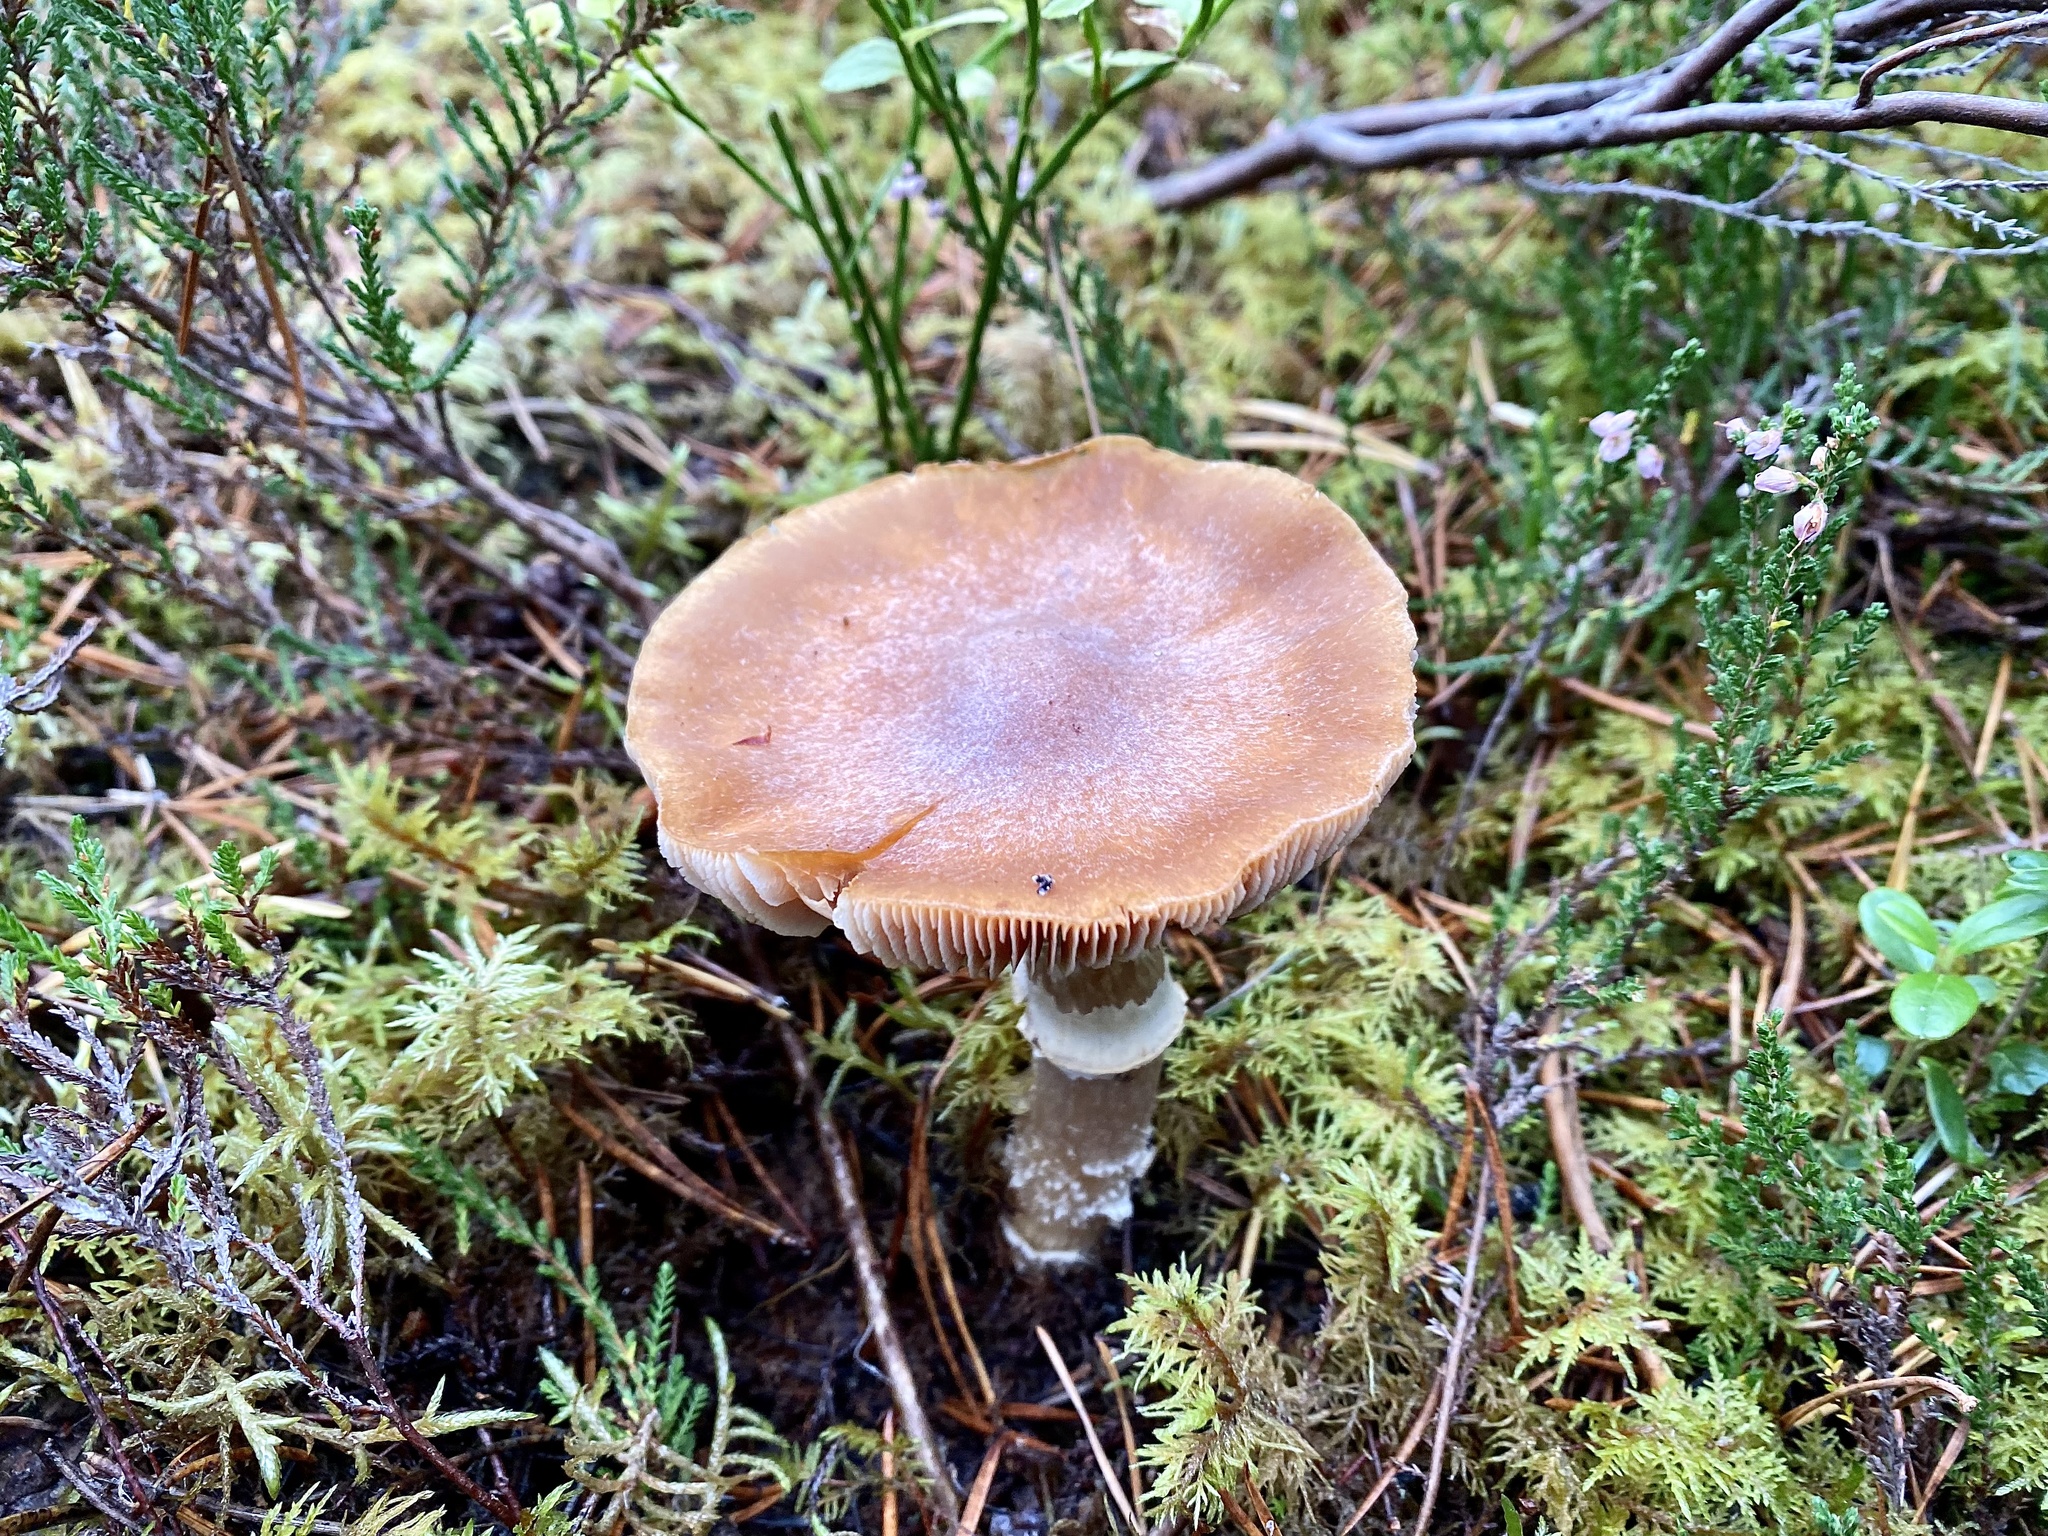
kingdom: Fungi
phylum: Basidiomycota
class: Agaricomycetes
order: Agaricales
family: Cortinariaceae
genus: Cortinarius
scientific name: Cortinarius caperatus
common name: The gypsy
